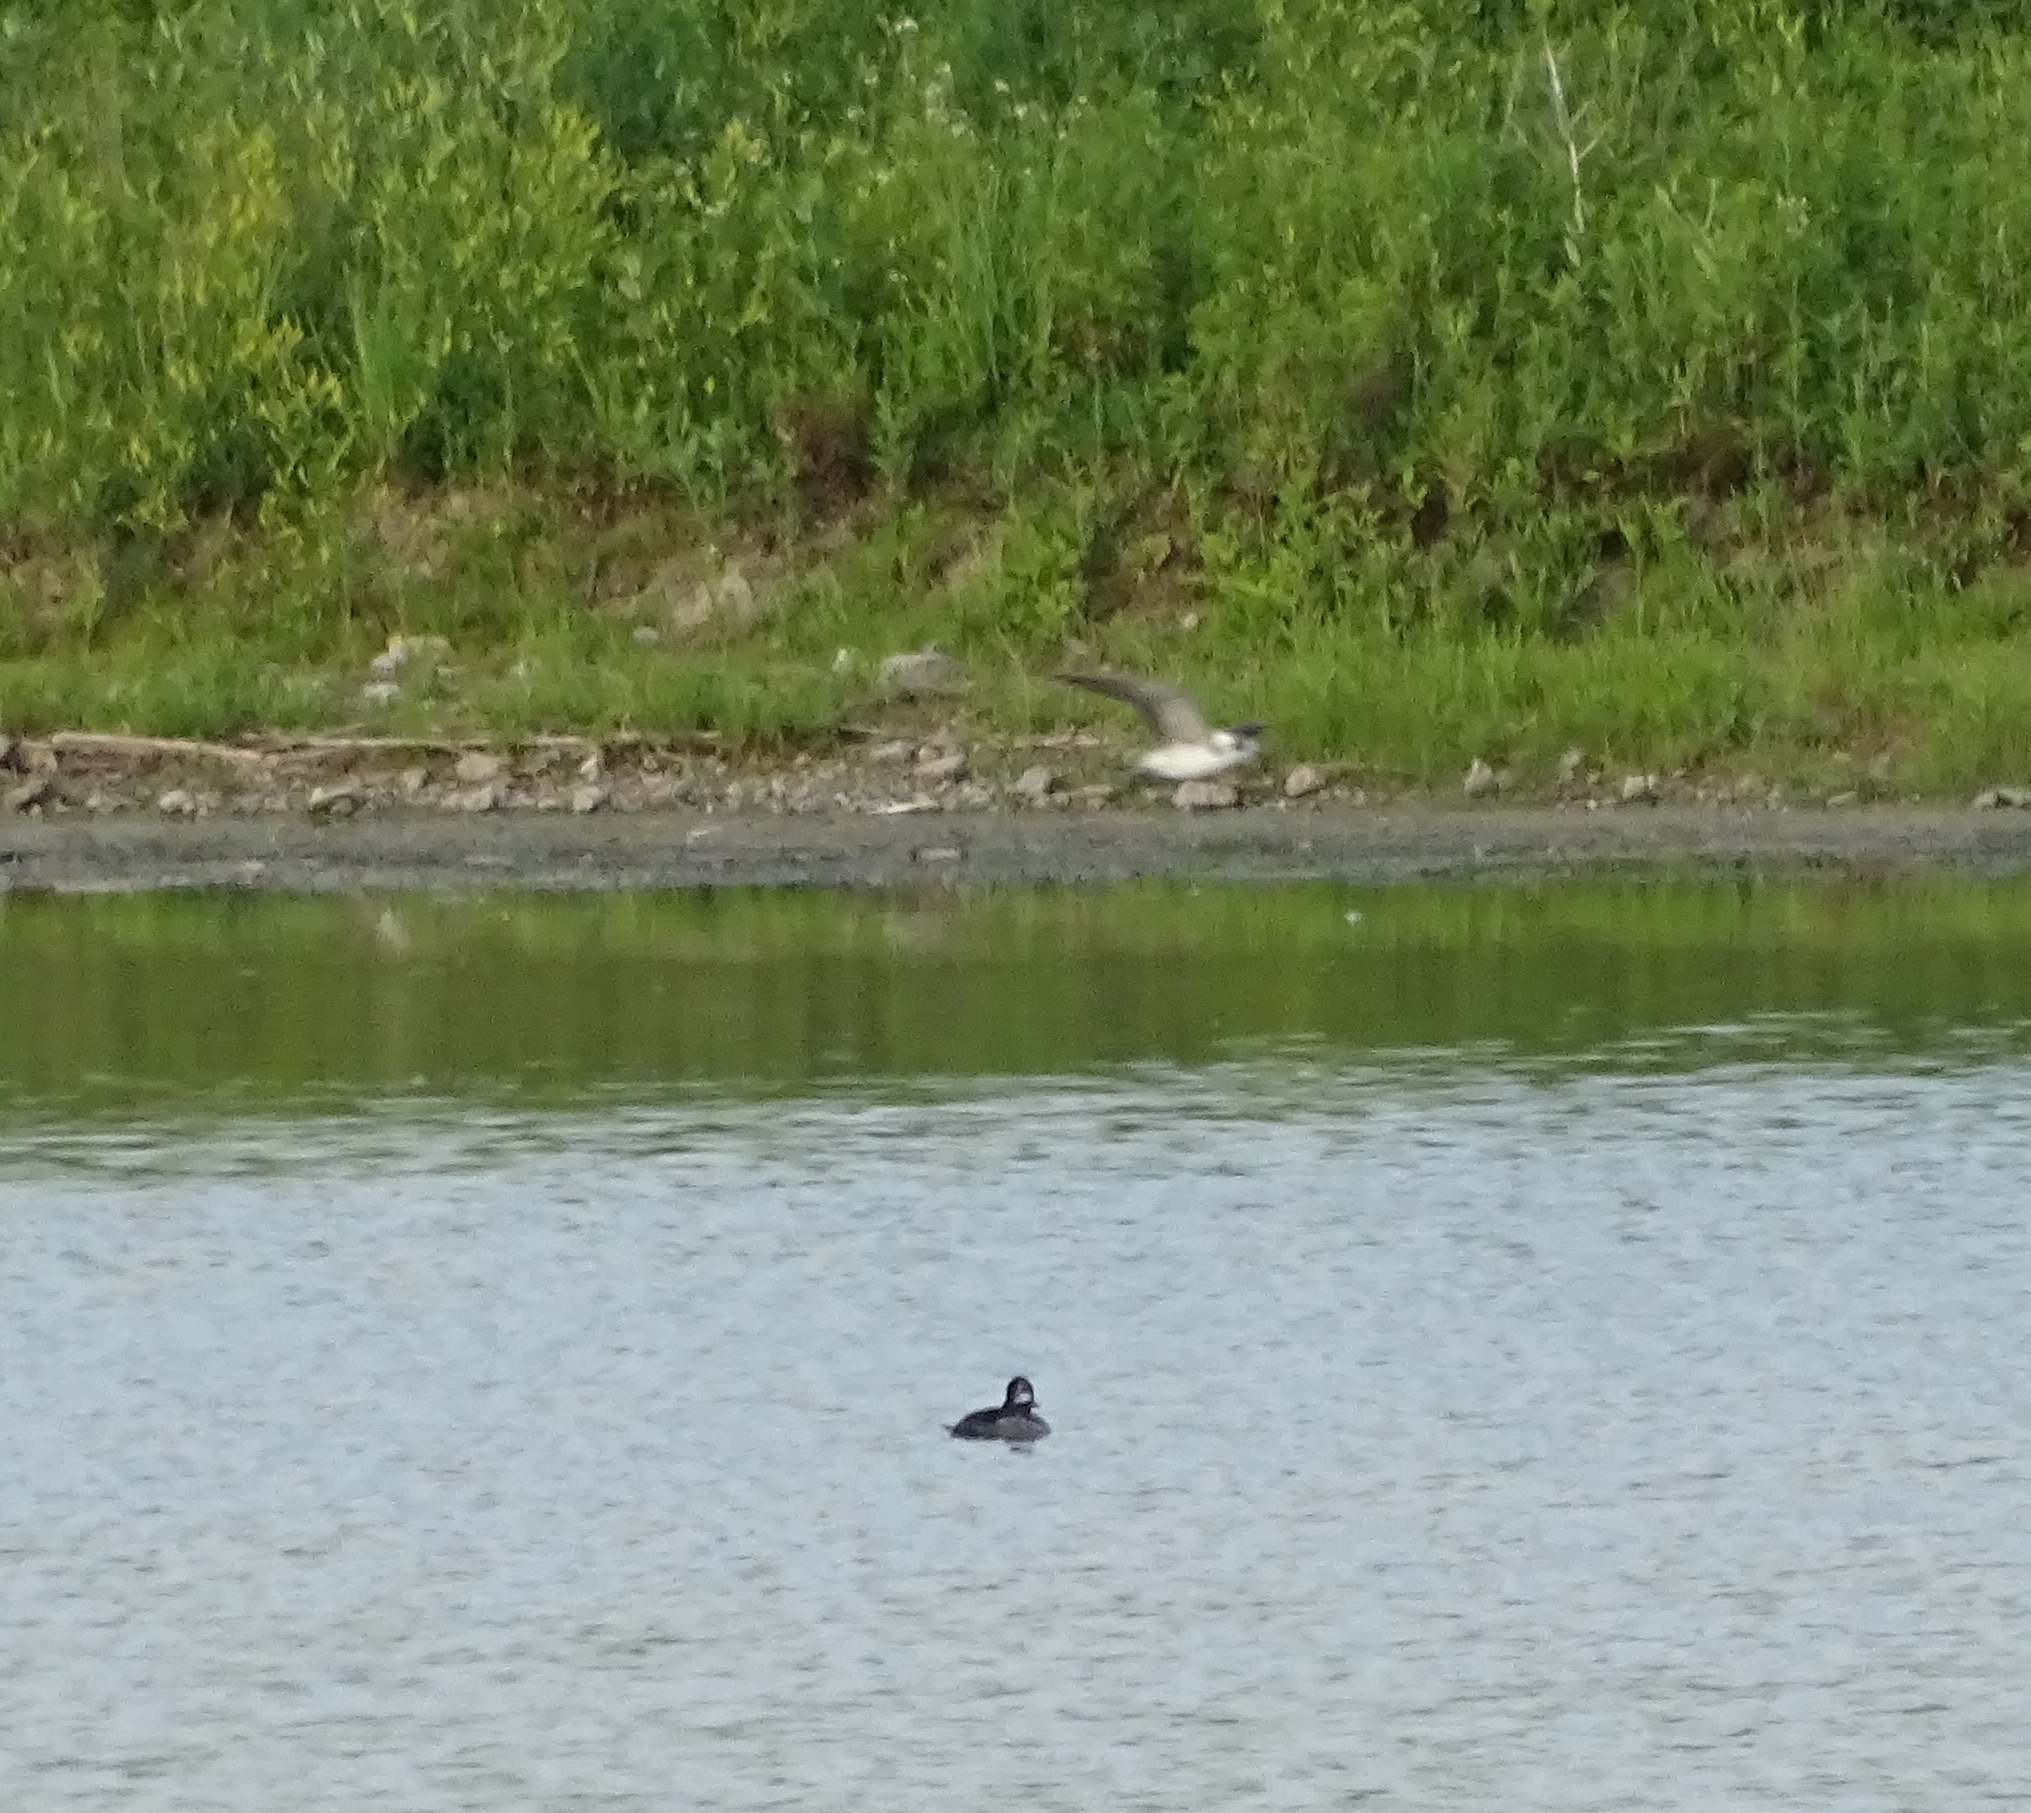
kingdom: Animalia
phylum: Chordata
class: Aves
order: Anseriformes
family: Anatidae
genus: Bucephala
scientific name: Bucephala albeola
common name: Bufflehead
